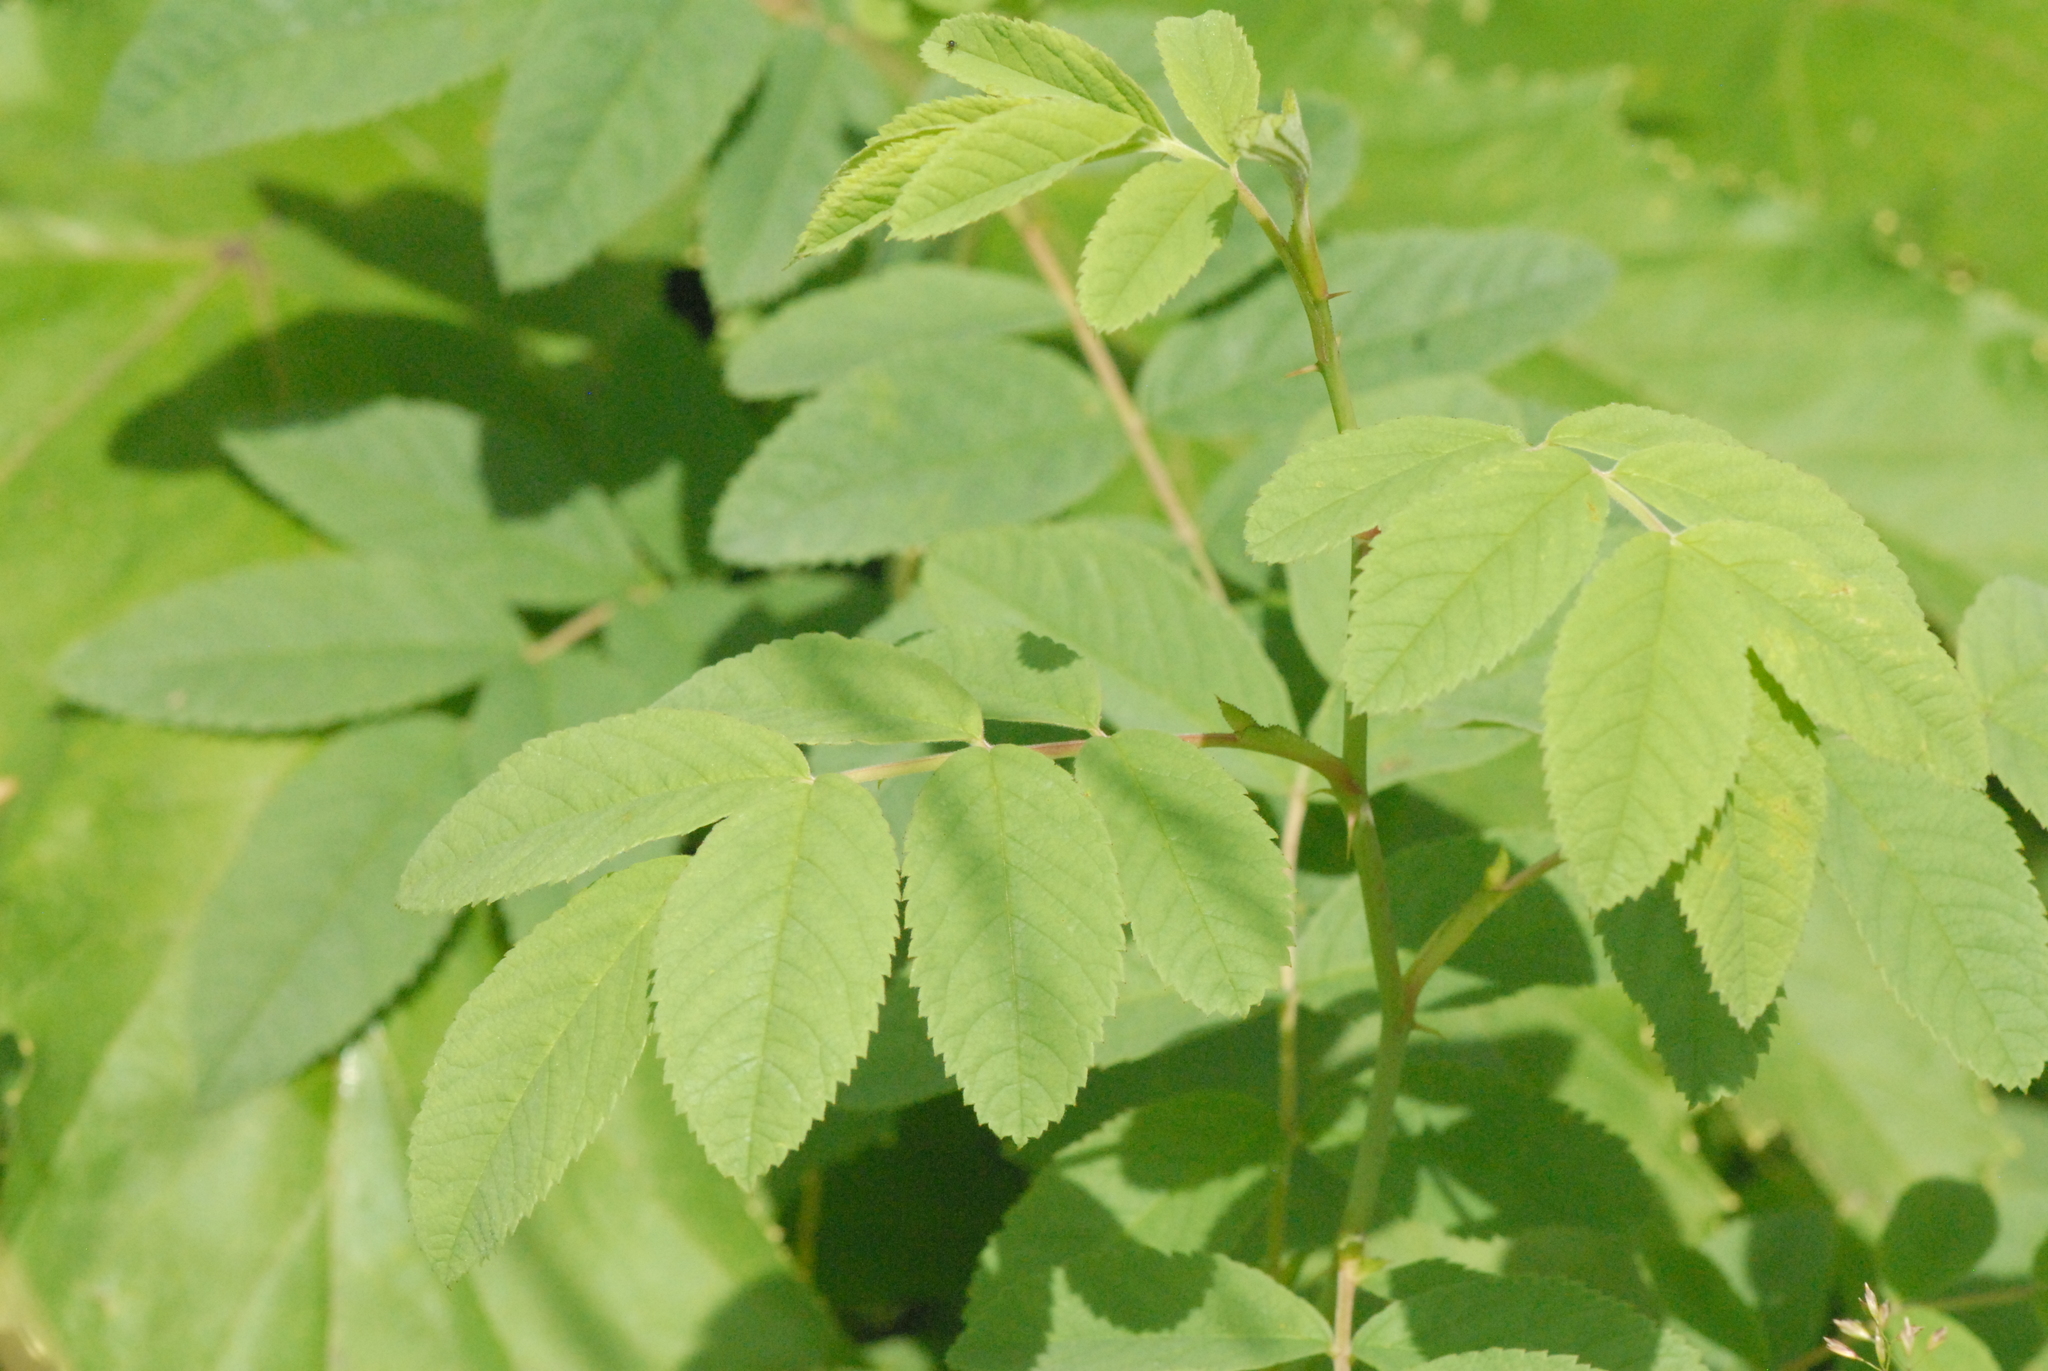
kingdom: Plantae
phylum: Tracheophyta
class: Magnoliopsida
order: Rosales
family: Rosaceae
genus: Rosa
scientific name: Rosa
